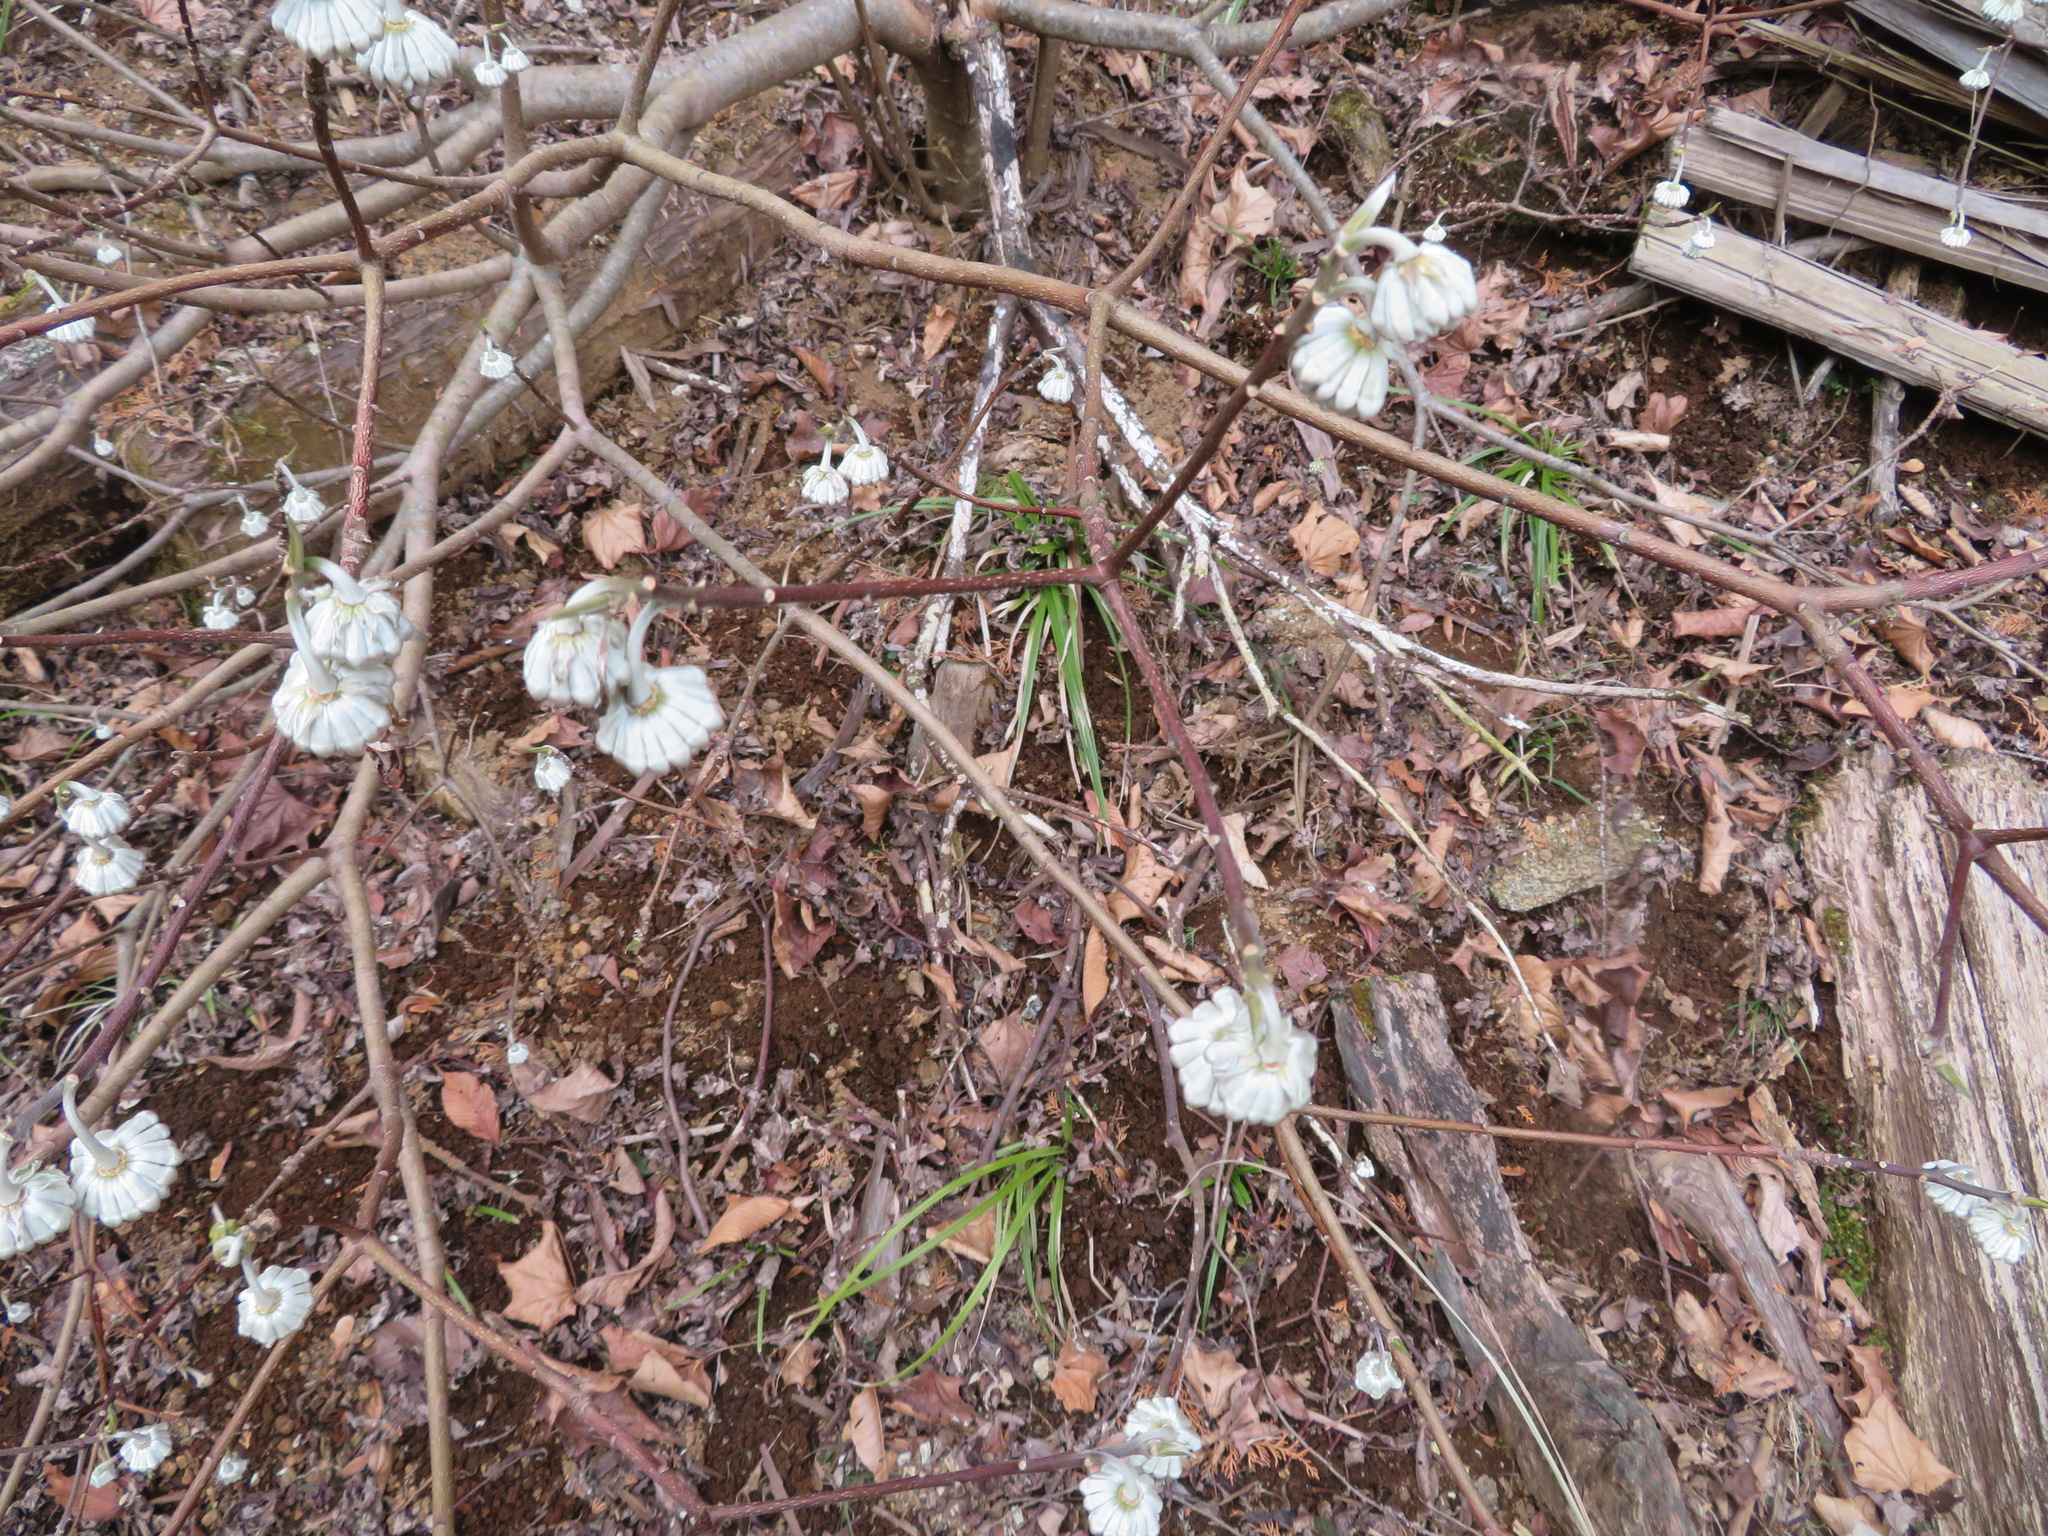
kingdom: Plantae
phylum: Tracheophyta
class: Magnoliopsida
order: Malvales
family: Thymelaeaceae
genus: Edgeworthia
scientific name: Edgeworthia chrysantha
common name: Oriental paperbush
